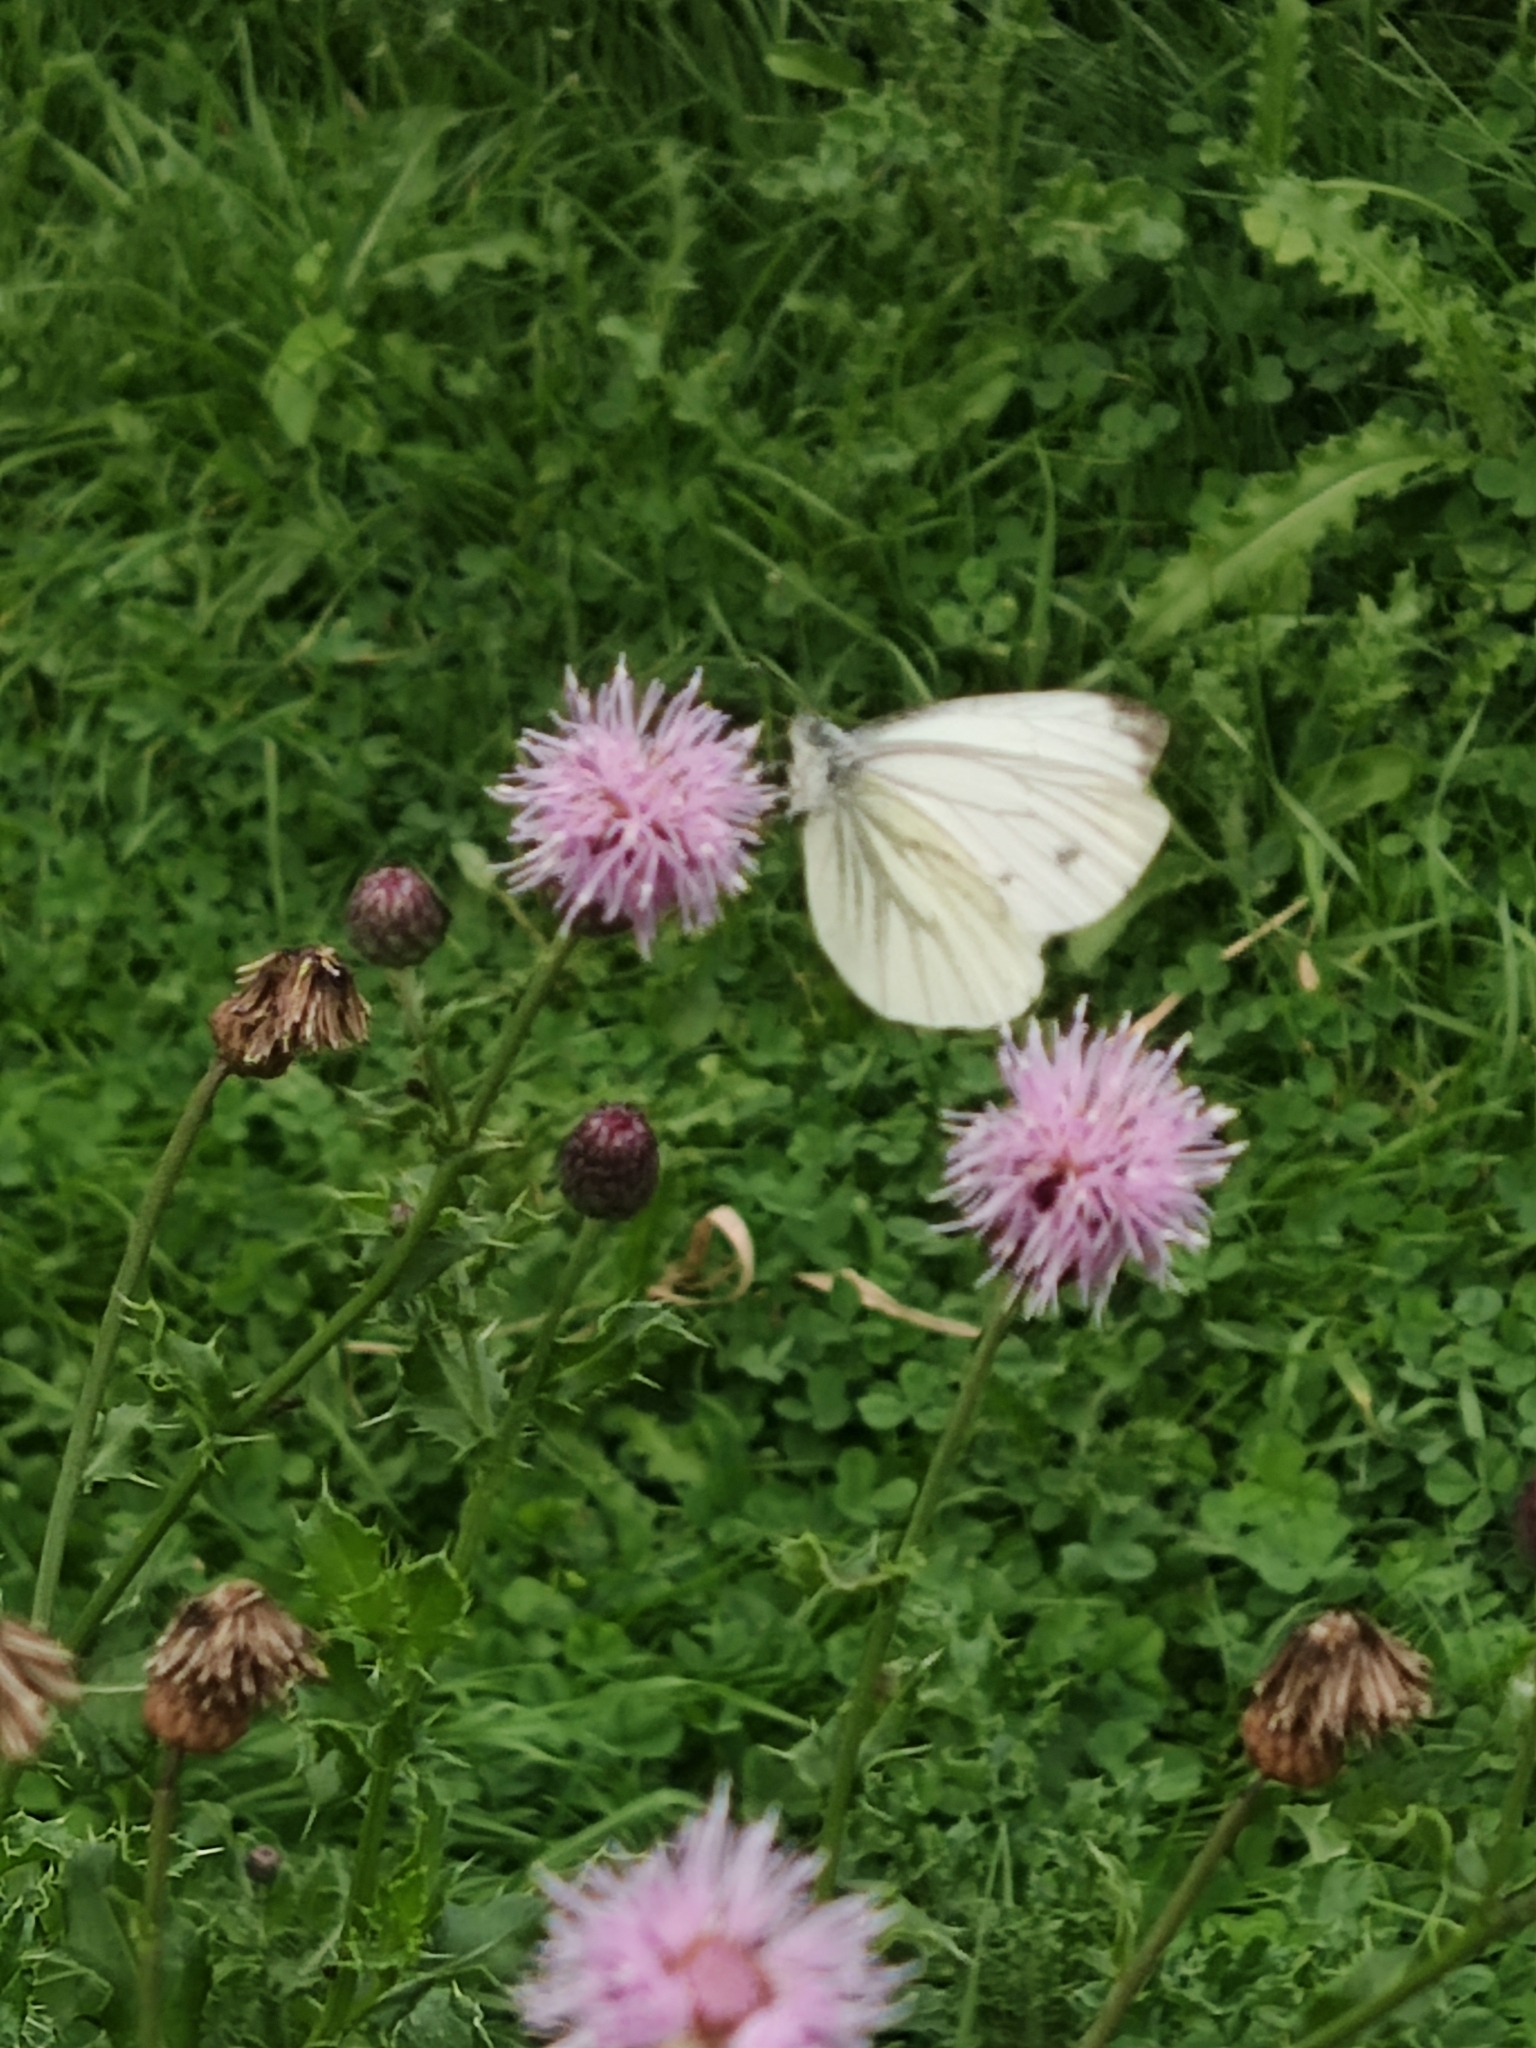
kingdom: Animalia
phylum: Arthropoda
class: Insecta
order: Lepidoptera
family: Pieridae
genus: Pieris
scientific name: Pieris napi
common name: Green-veined white
